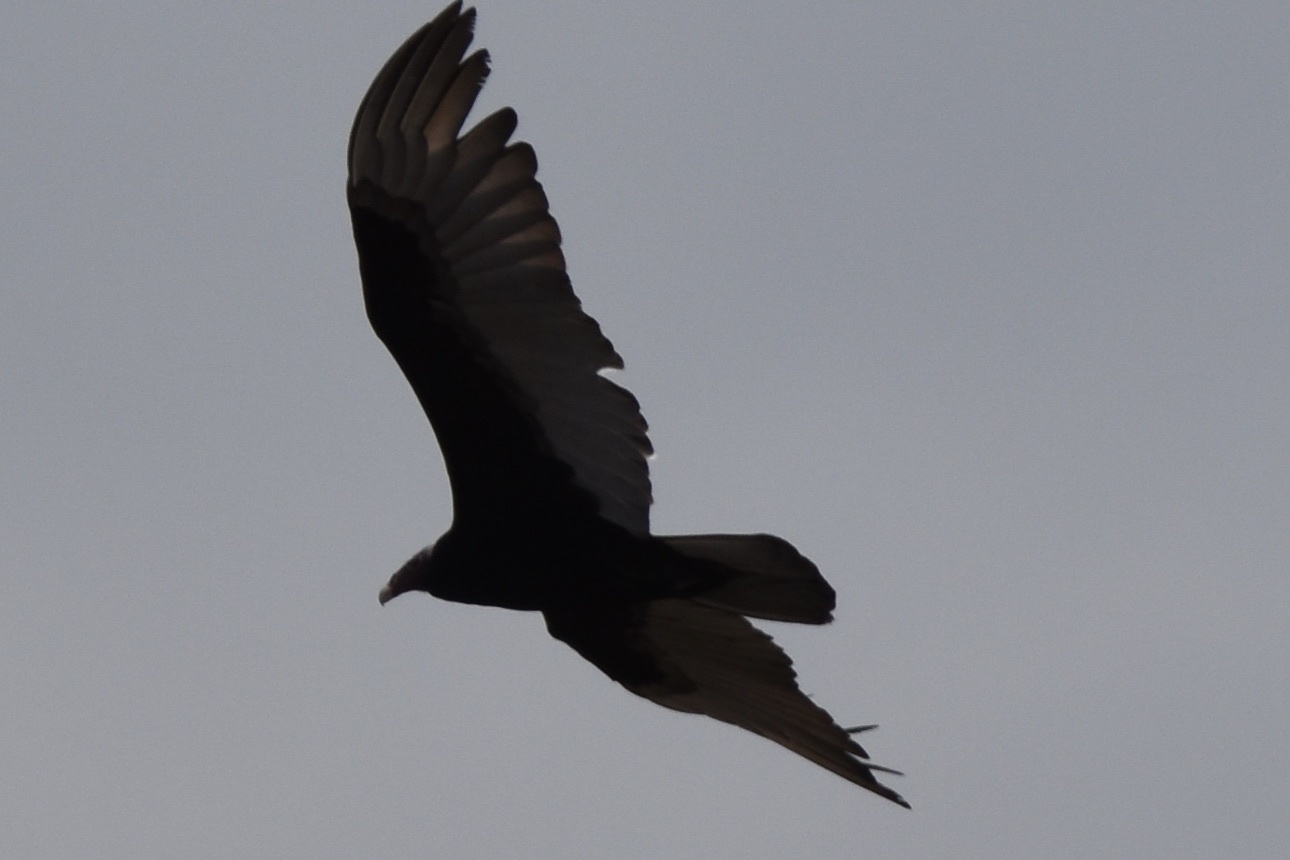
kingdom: Animalia
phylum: Chordata
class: Aves
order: Accipitriformes
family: Cathartidae
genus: Cathartes
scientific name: Cathartes aura
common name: Turkey vulture
